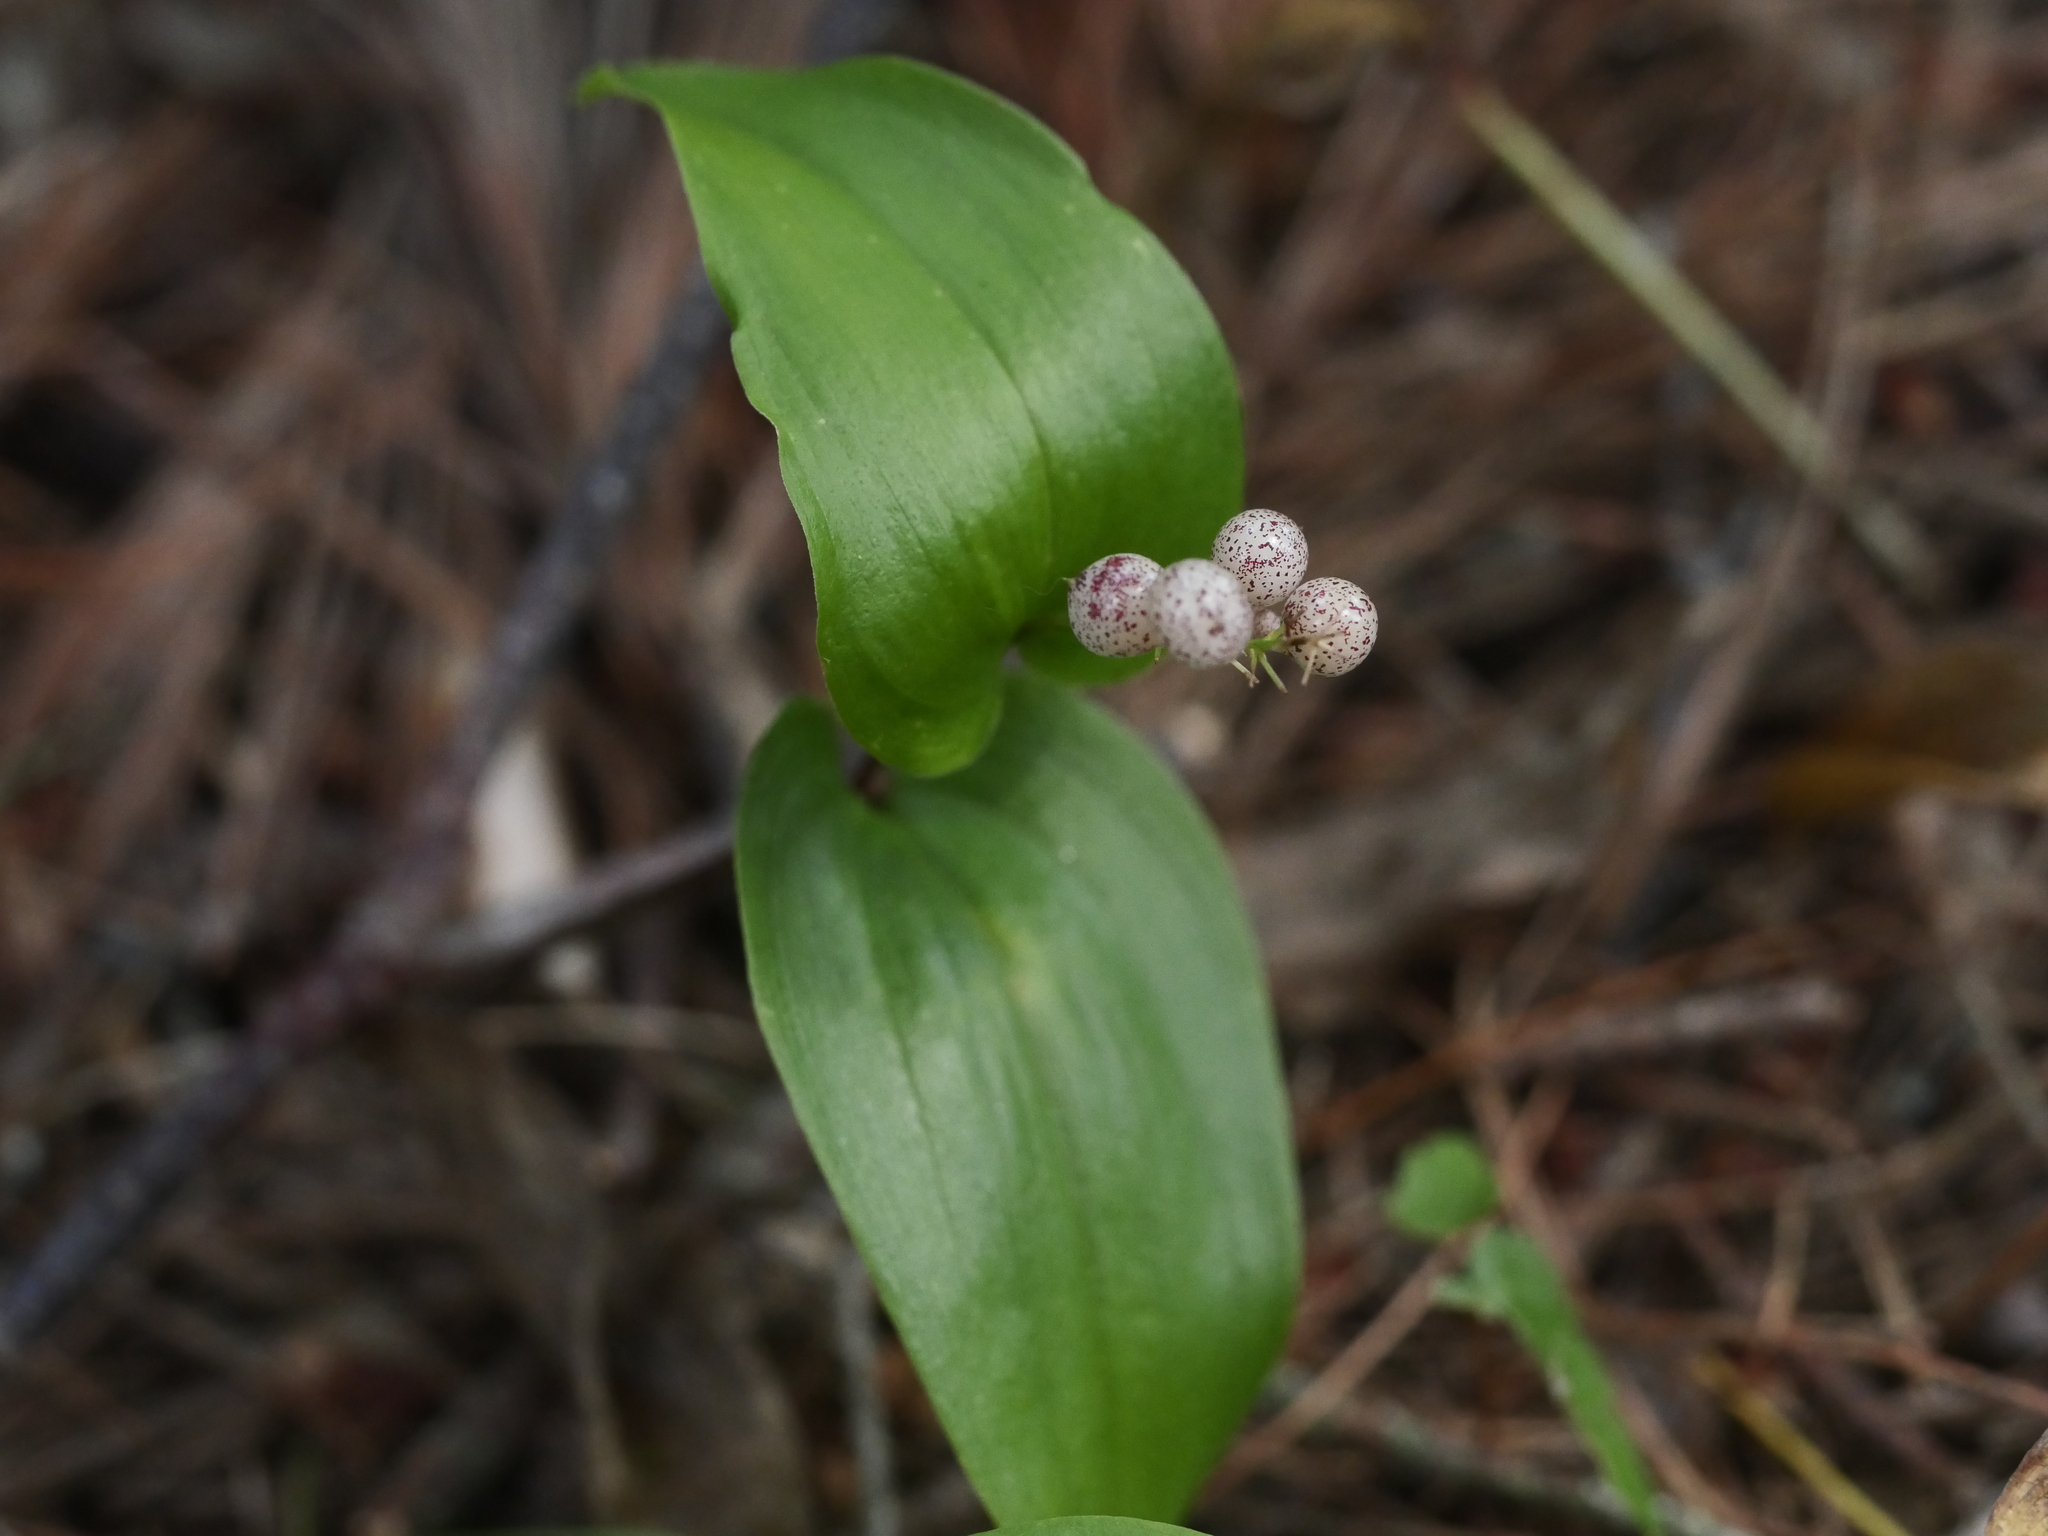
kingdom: Plantae
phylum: Tracheophyta
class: Liliopsida
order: Asparagales
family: Asparagaceae
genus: Maianthemum
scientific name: Maianthemum canadense
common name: False lily-of-the-valley
